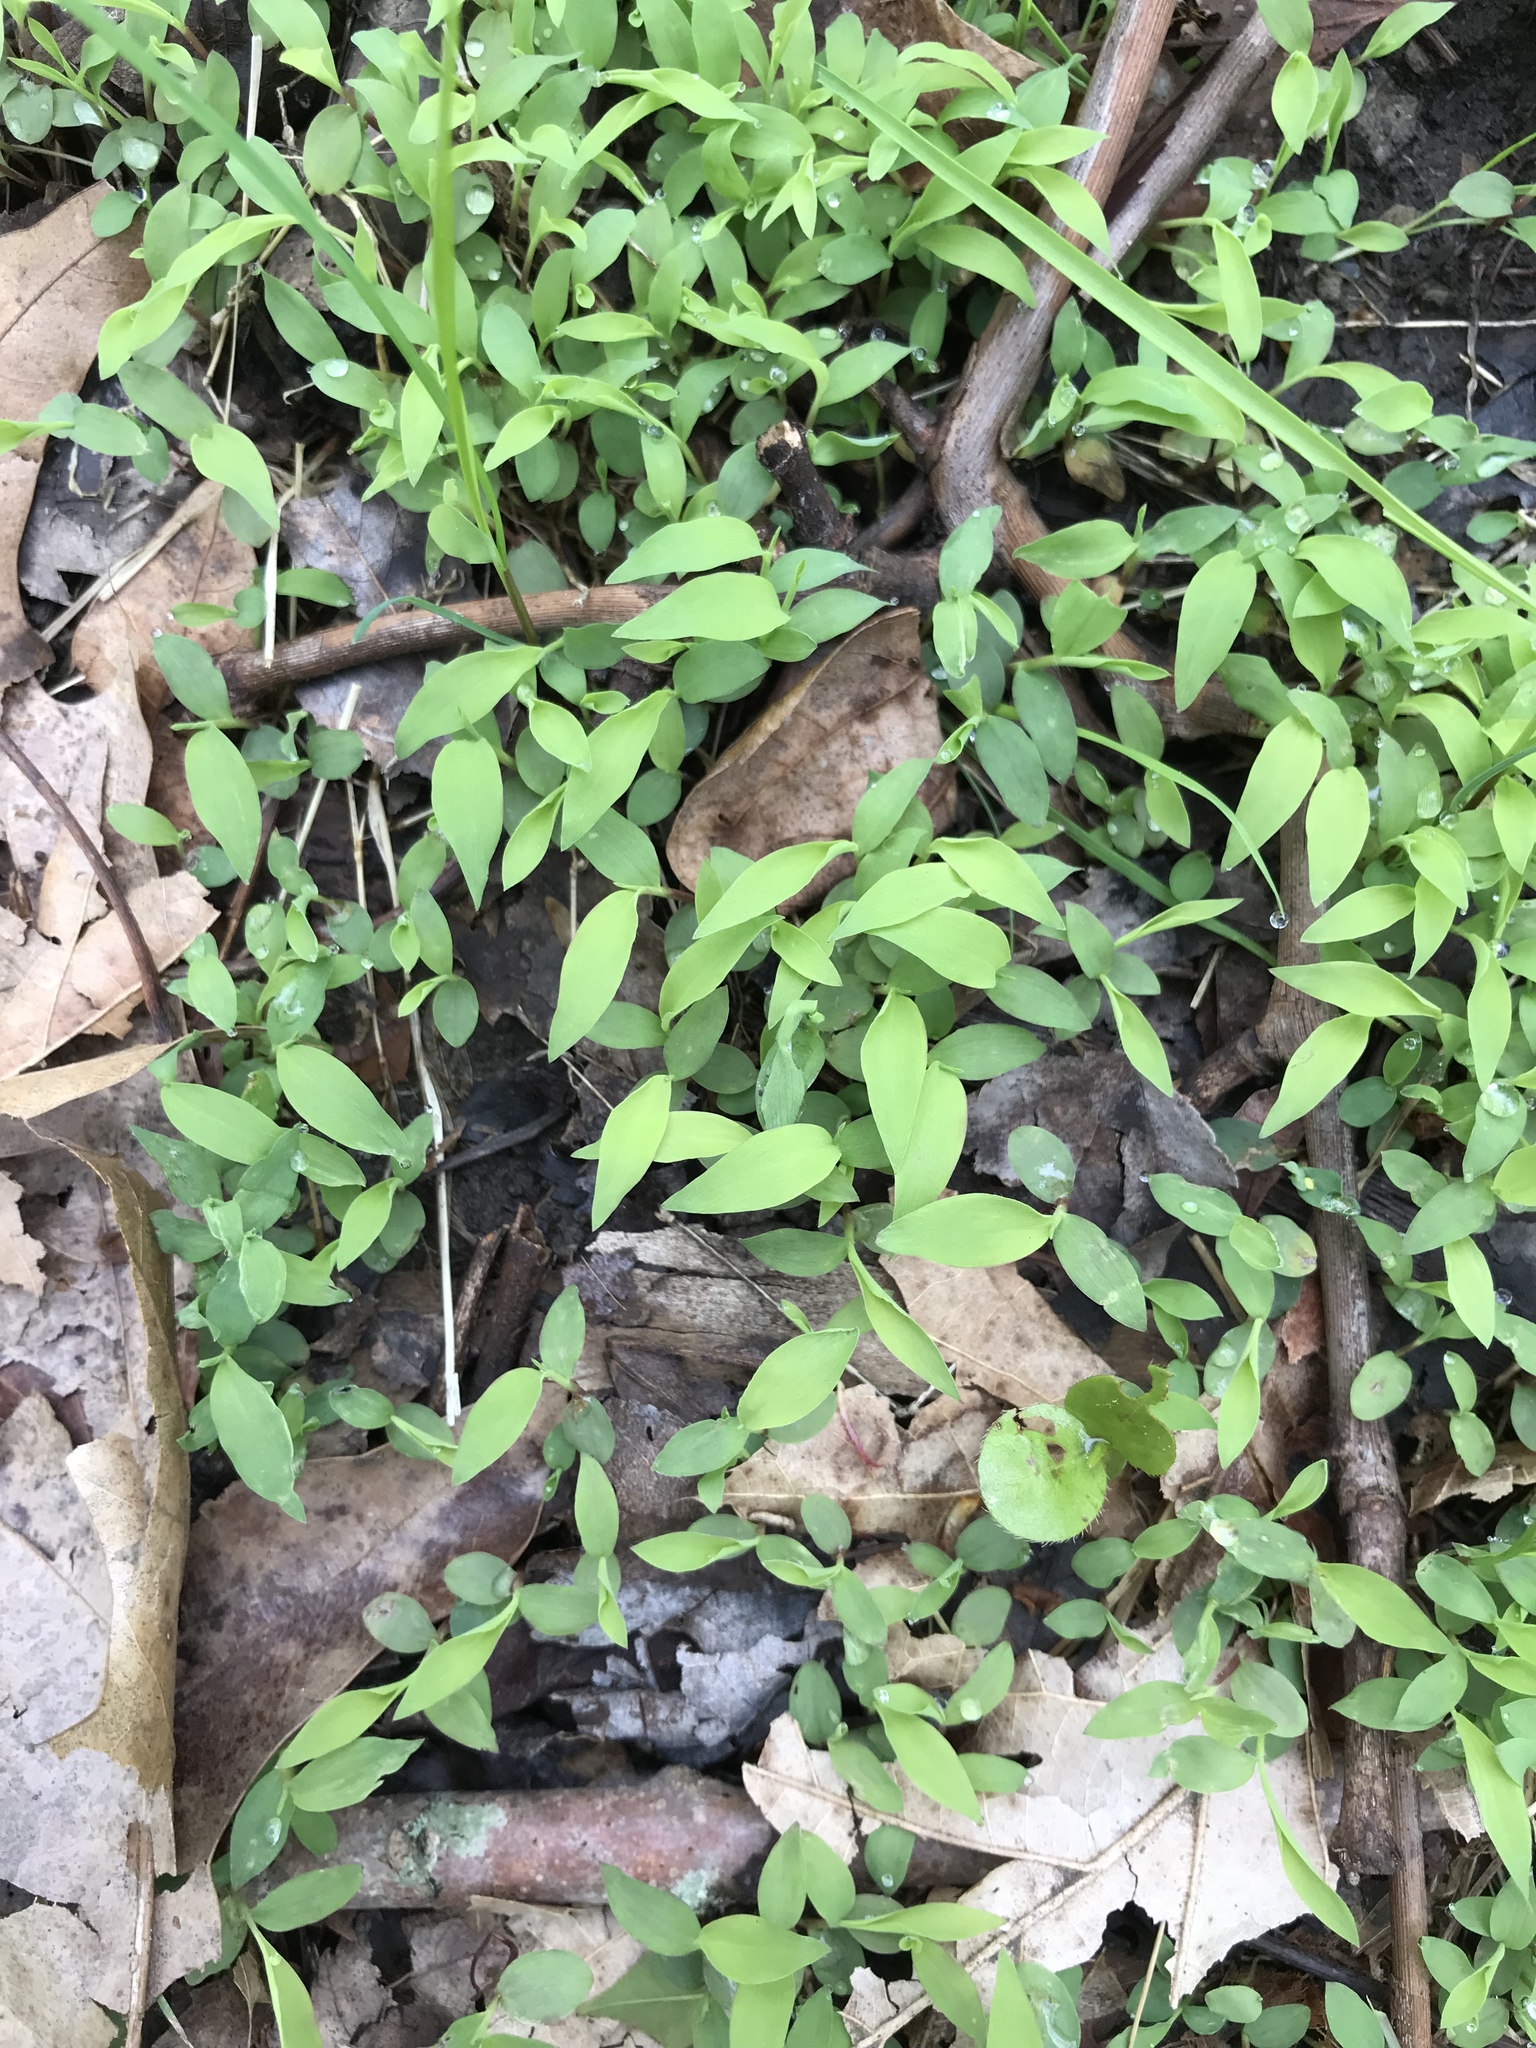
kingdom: Plantae
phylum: Tracheophyta
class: Liliopsida
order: Poales
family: Poaceae
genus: Microstegium
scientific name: Microstegium vimineum
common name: Japanese stiltgrass
